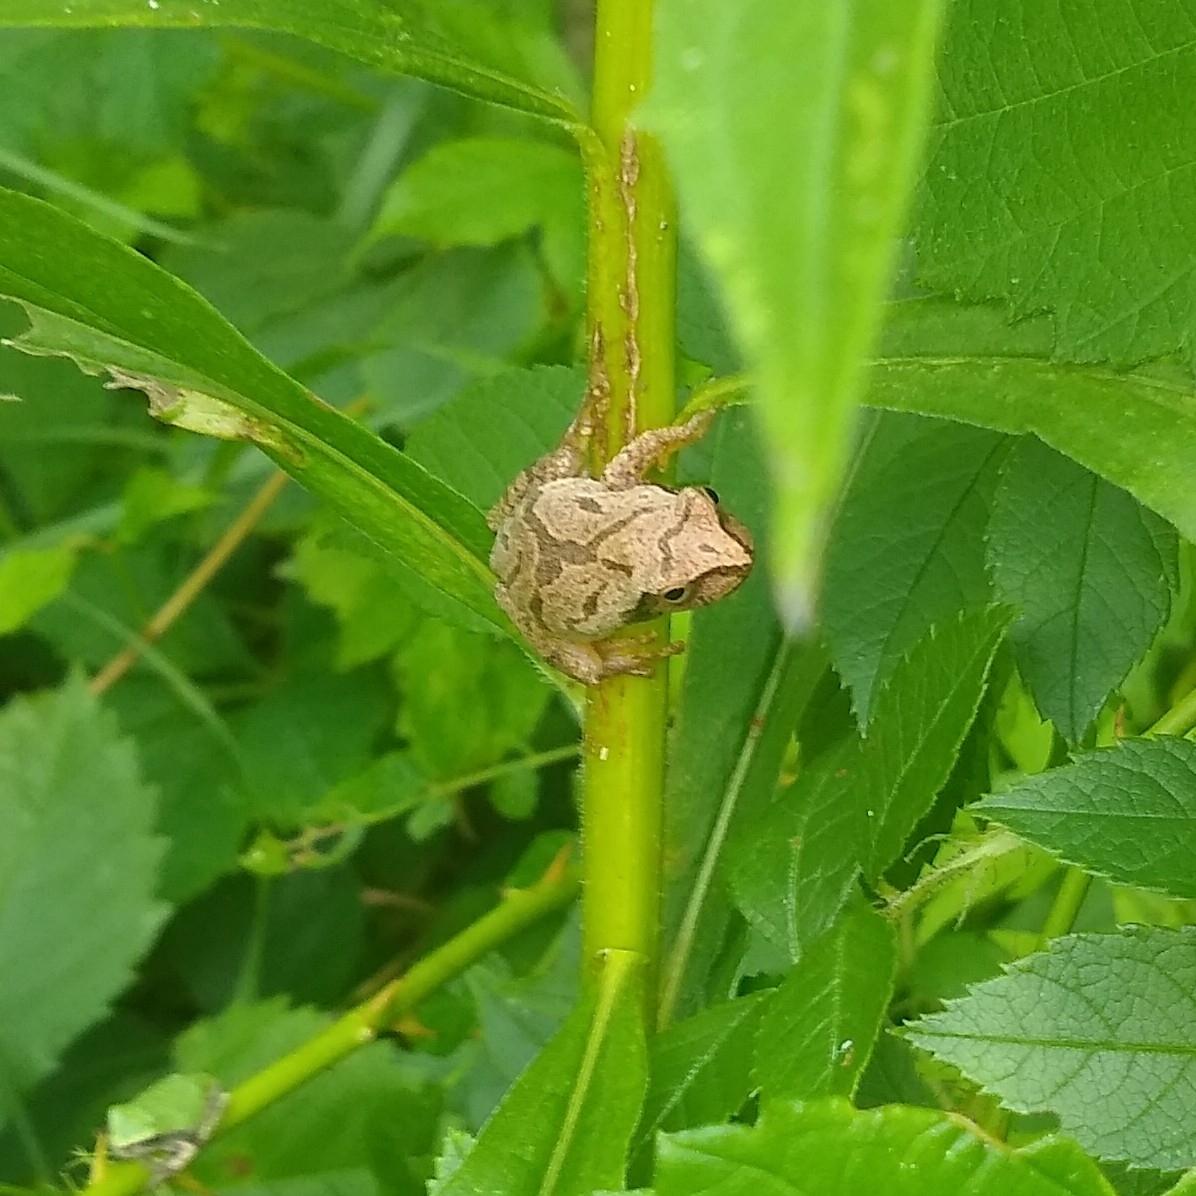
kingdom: Animalia
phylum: Chordata
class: Amphibia
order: Anura
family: Hylidae
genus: Pseudacris
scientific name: Pseudacris crucifer
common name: Spring peeper
